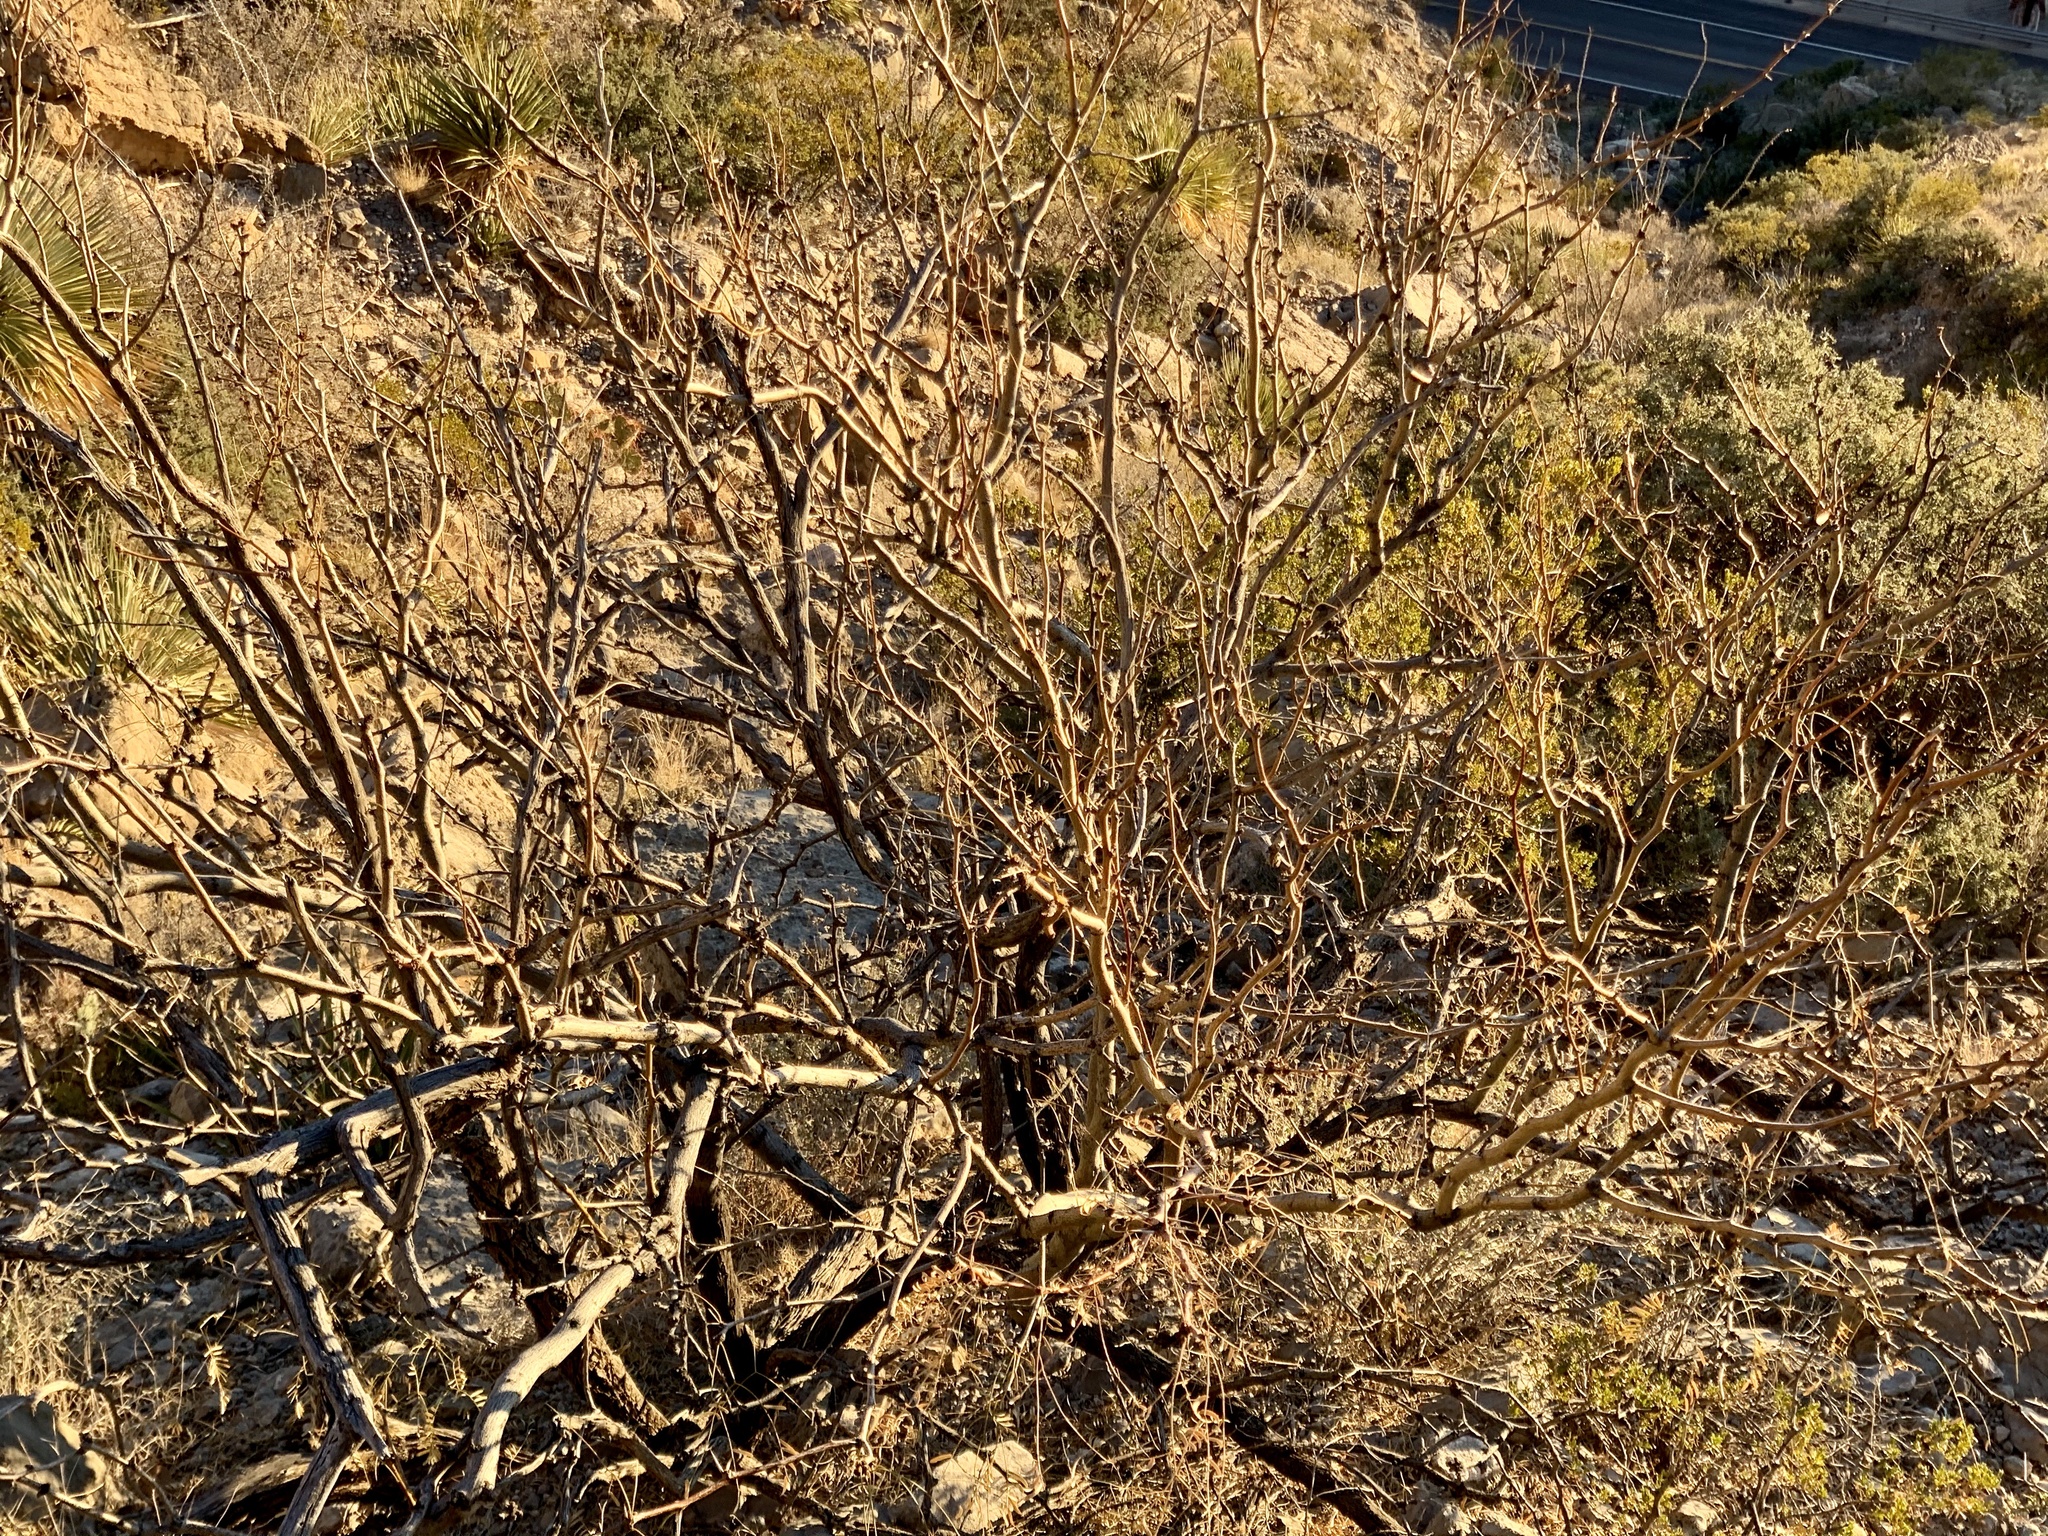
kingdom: Plantae
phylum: Tracheophyta
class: Magnoliopsida
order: Fabales
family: Fabaceae
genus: Prosopis
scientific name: Prosopis glandulosa
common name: Honey mesquite
